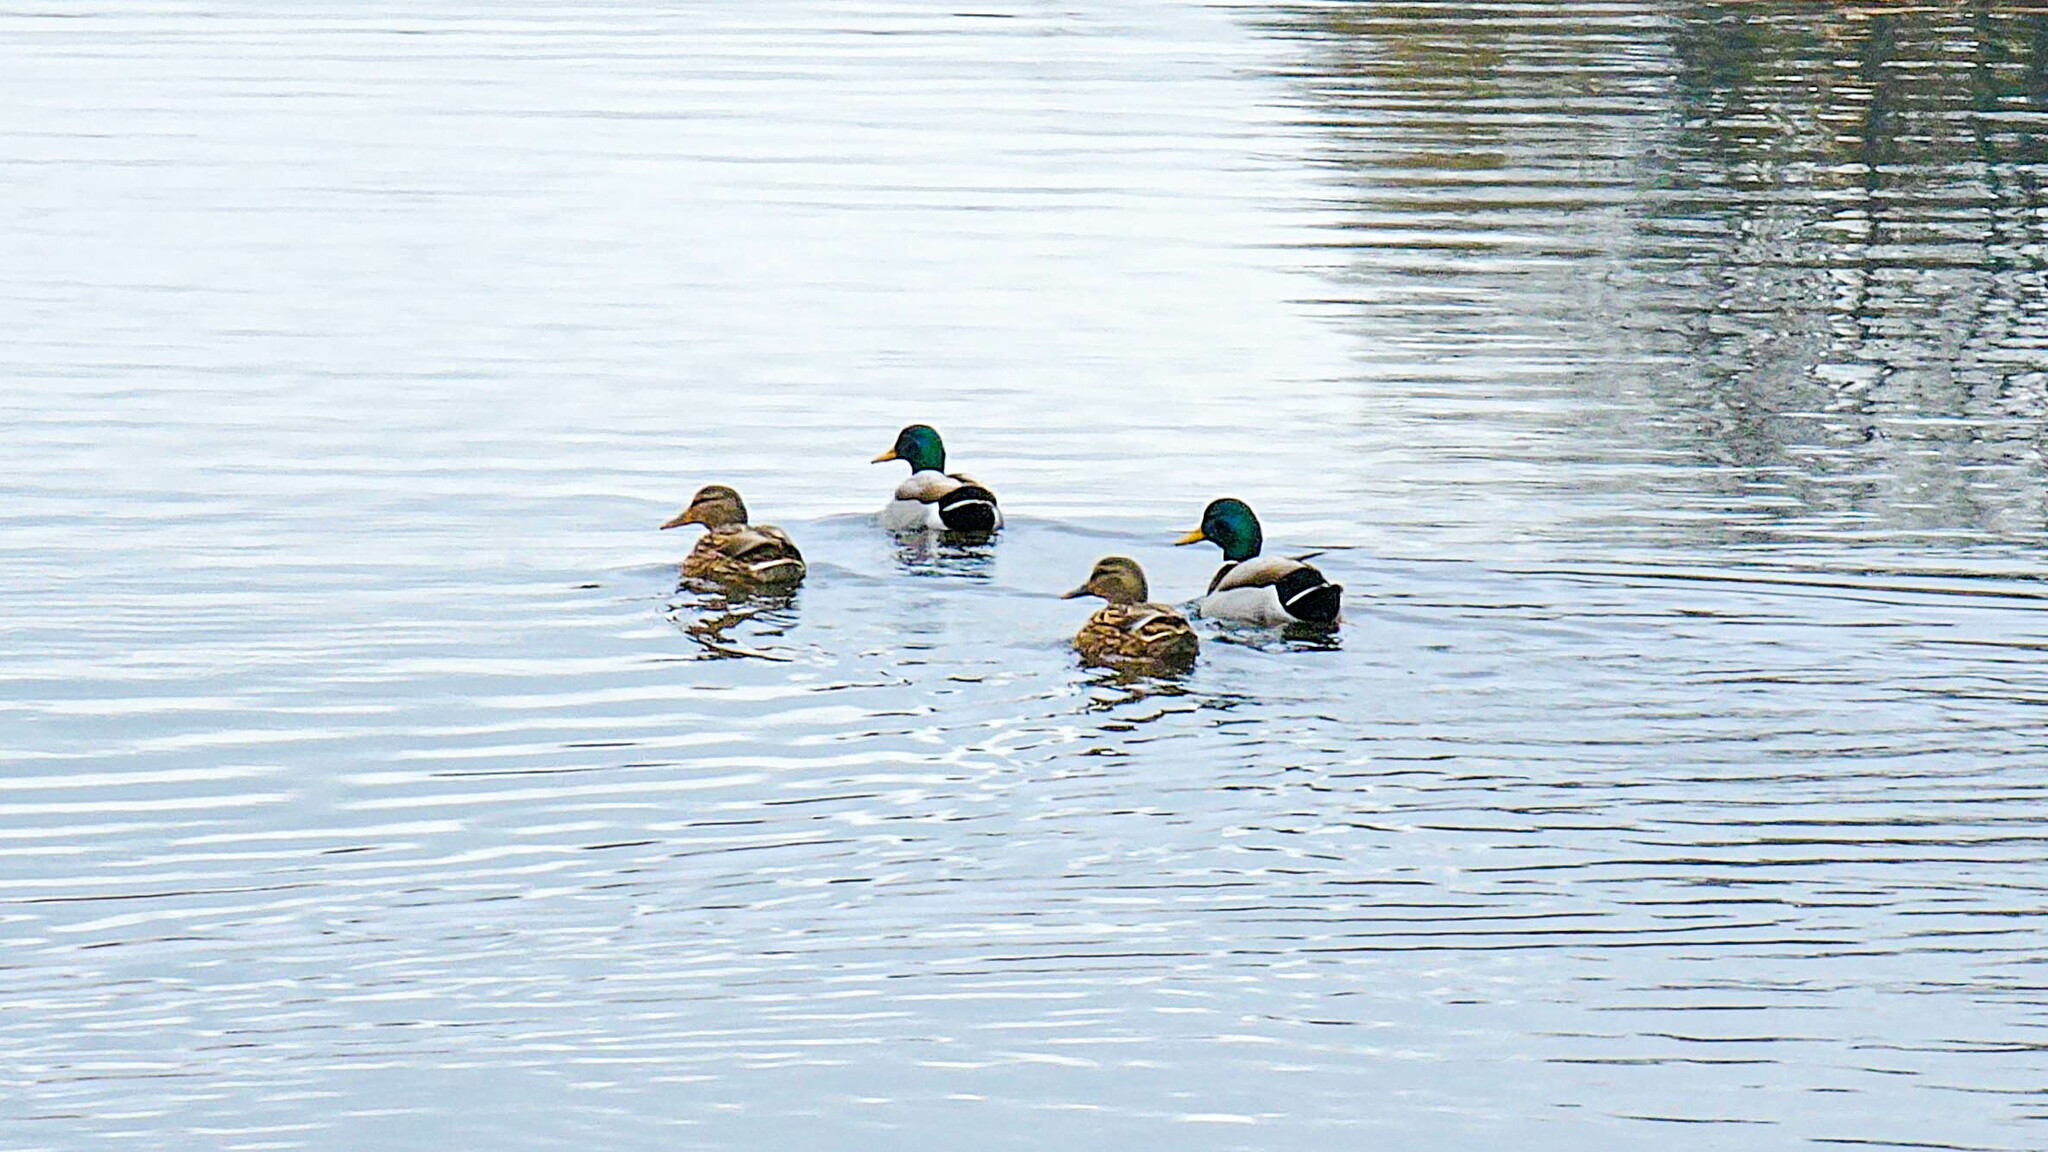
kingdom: Animalia
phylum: Chordata
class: Aves
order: Anseriformes
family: Anatidae
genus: Anas
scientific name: Anas platyrhynchos
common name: Mallard
